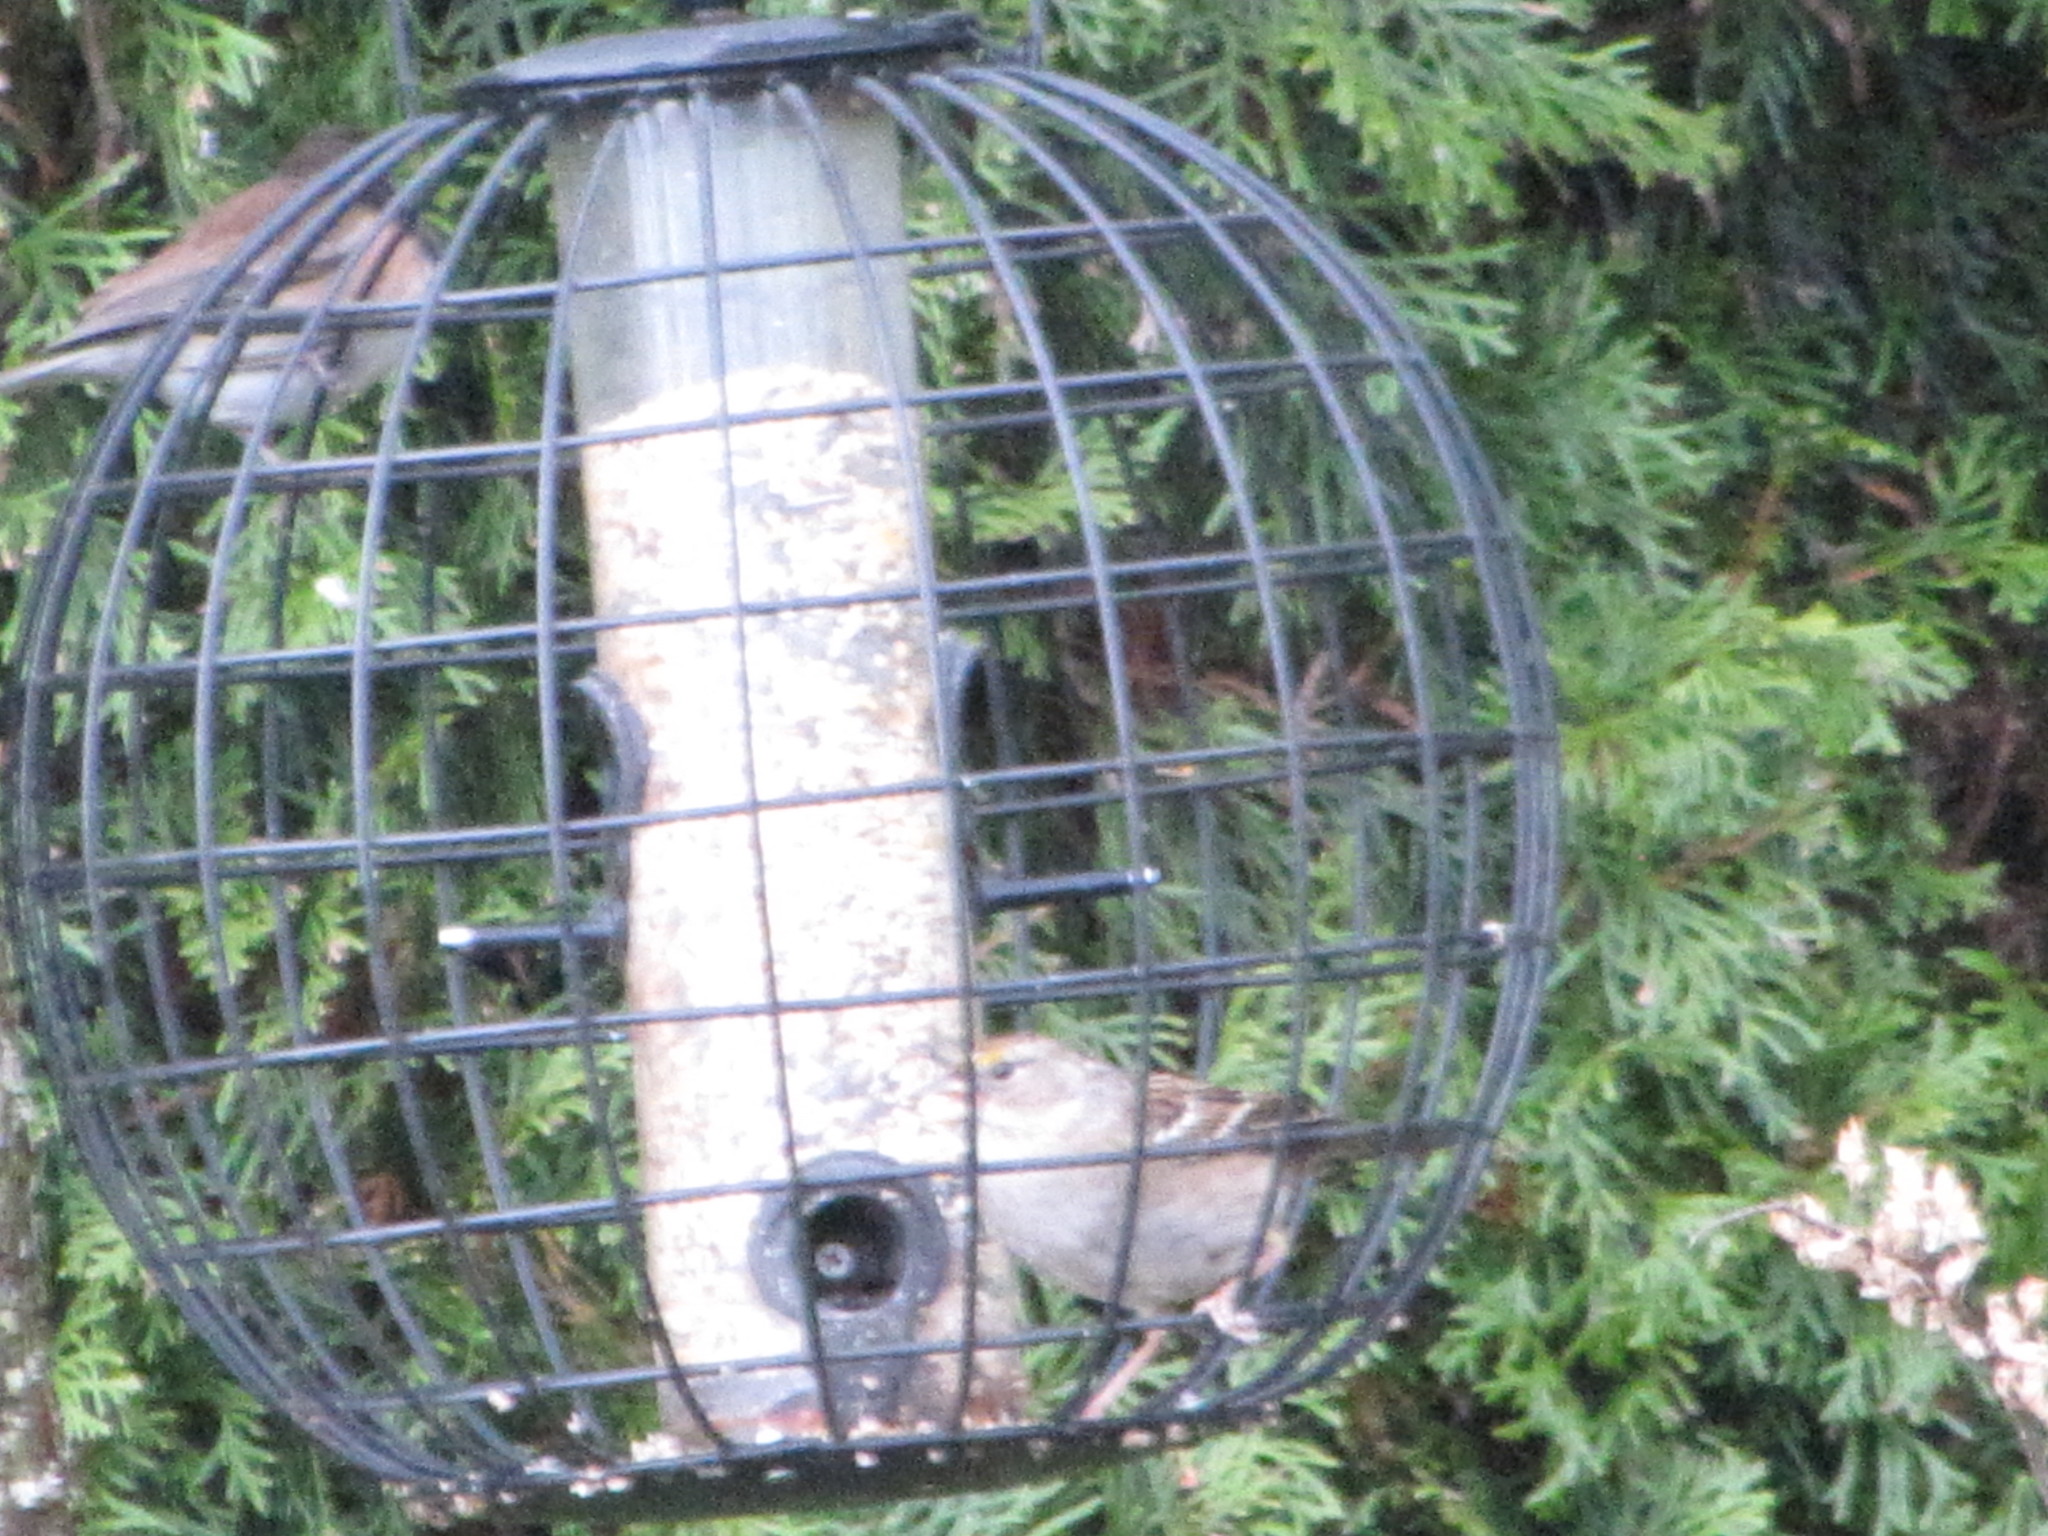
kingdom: Animalia
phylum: Chordata
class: Aves
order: Passeriformes
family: Passerellidae
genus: Zonotrichia
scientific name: Zonotrichia atricapilla
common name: Golden-crowned sparrow
